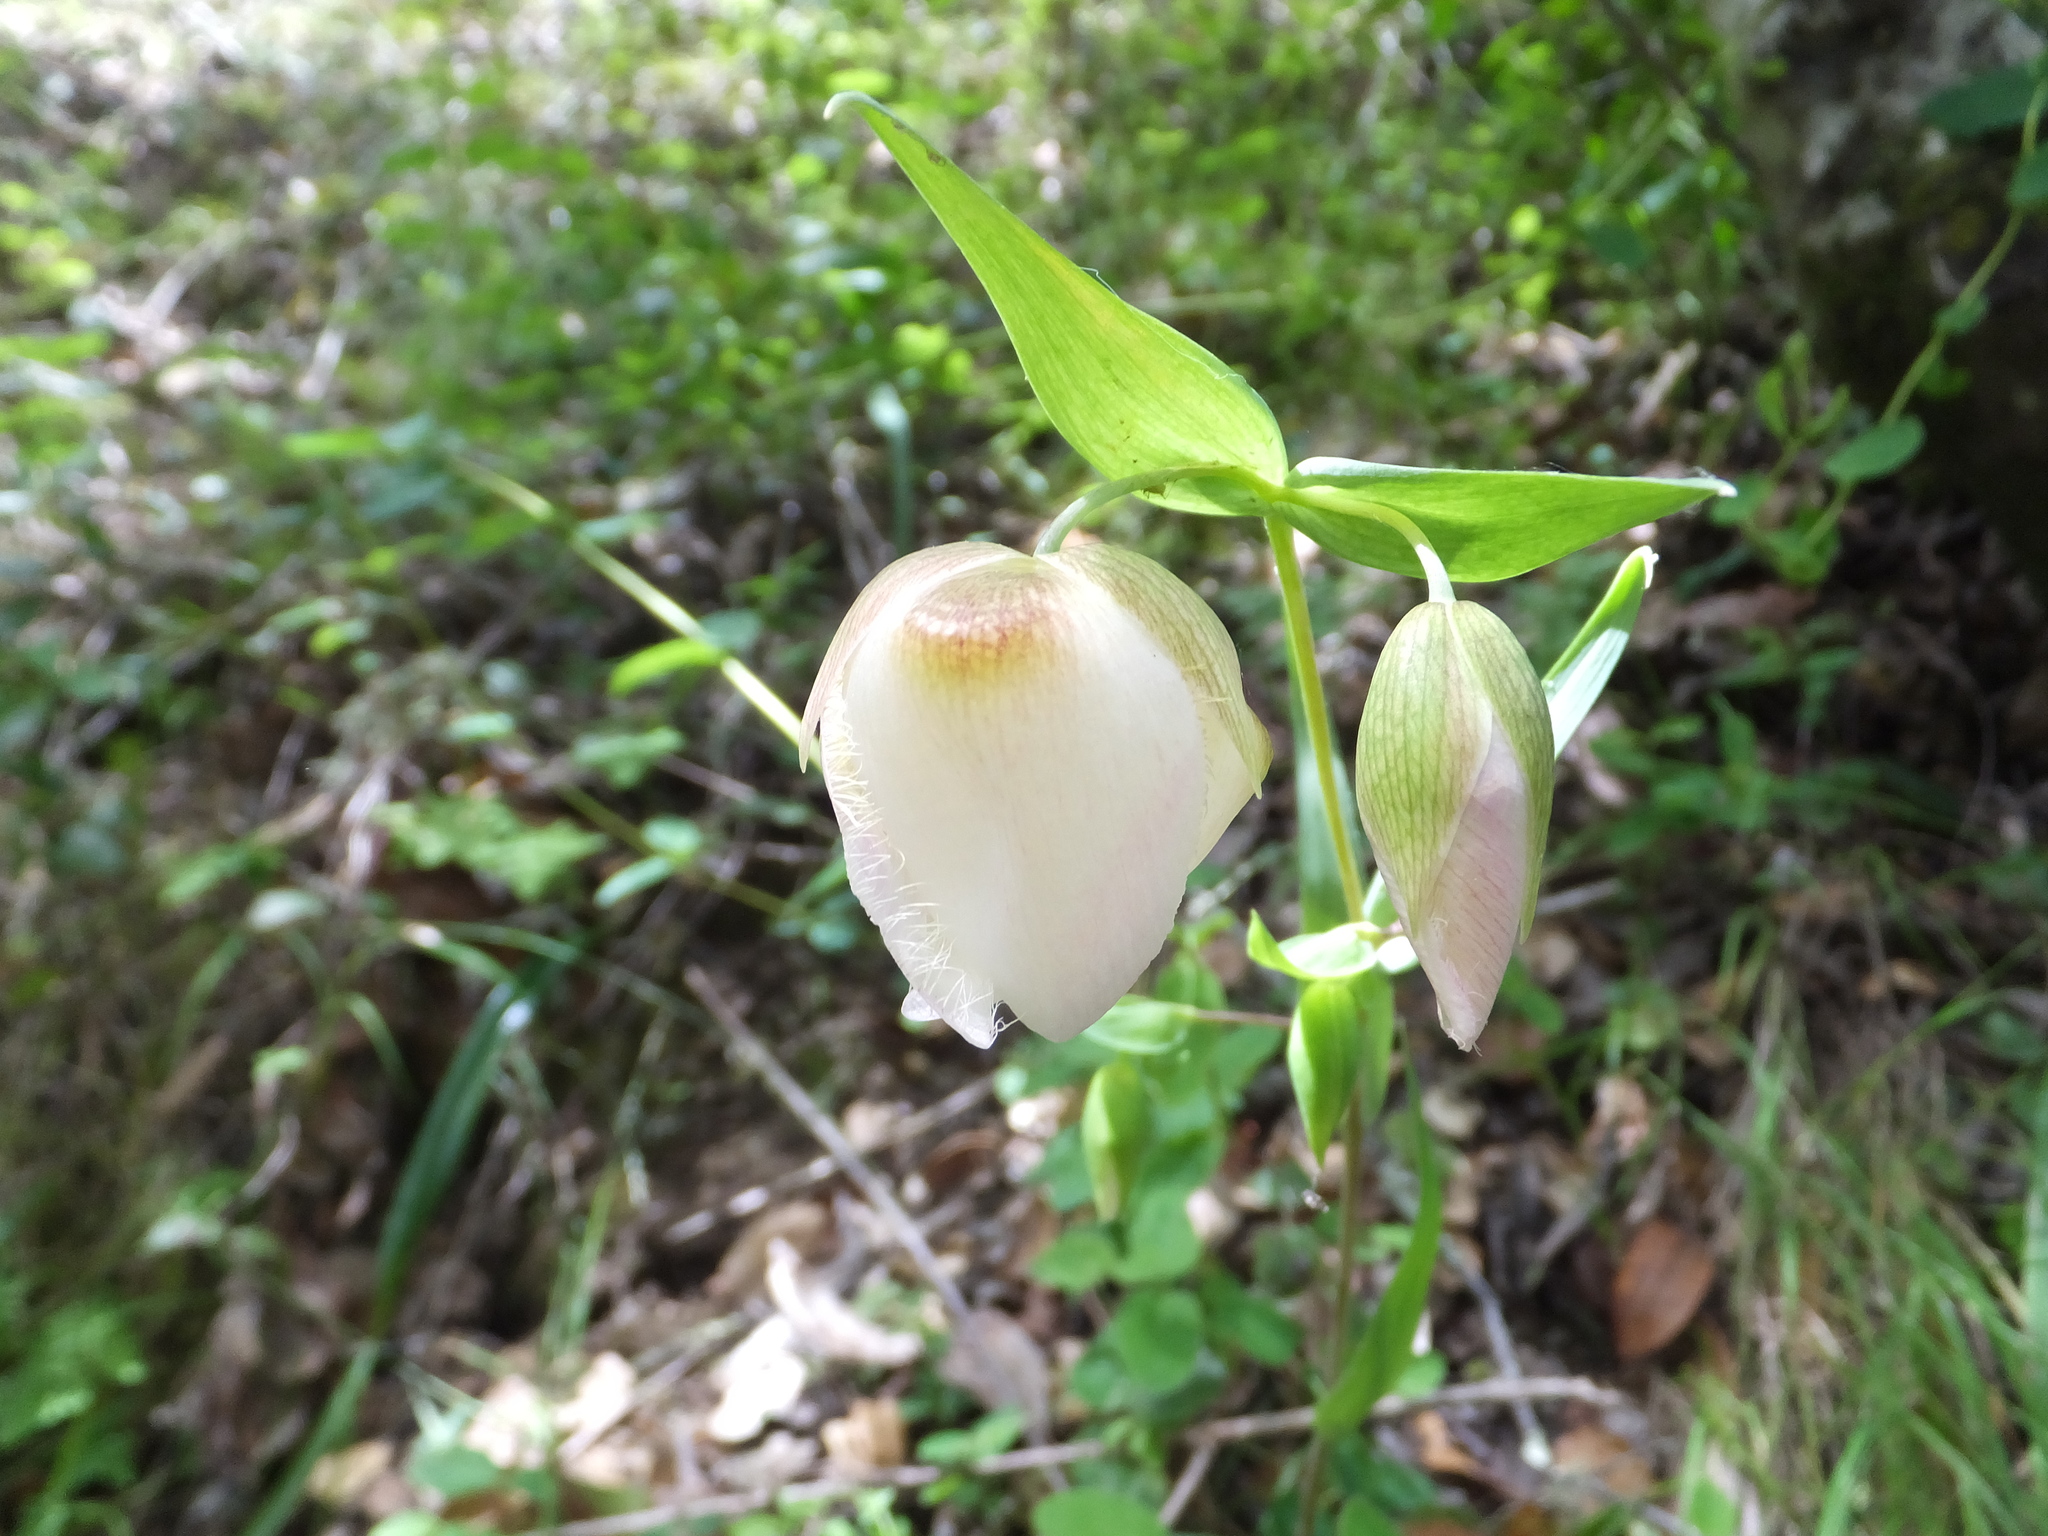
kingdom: Plantae
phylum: Tracheophyta
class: Liliopsida
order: Liliales
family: Liliaceae
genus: Calochortus
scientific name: Calochortus albus
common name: Fairy-lantern
